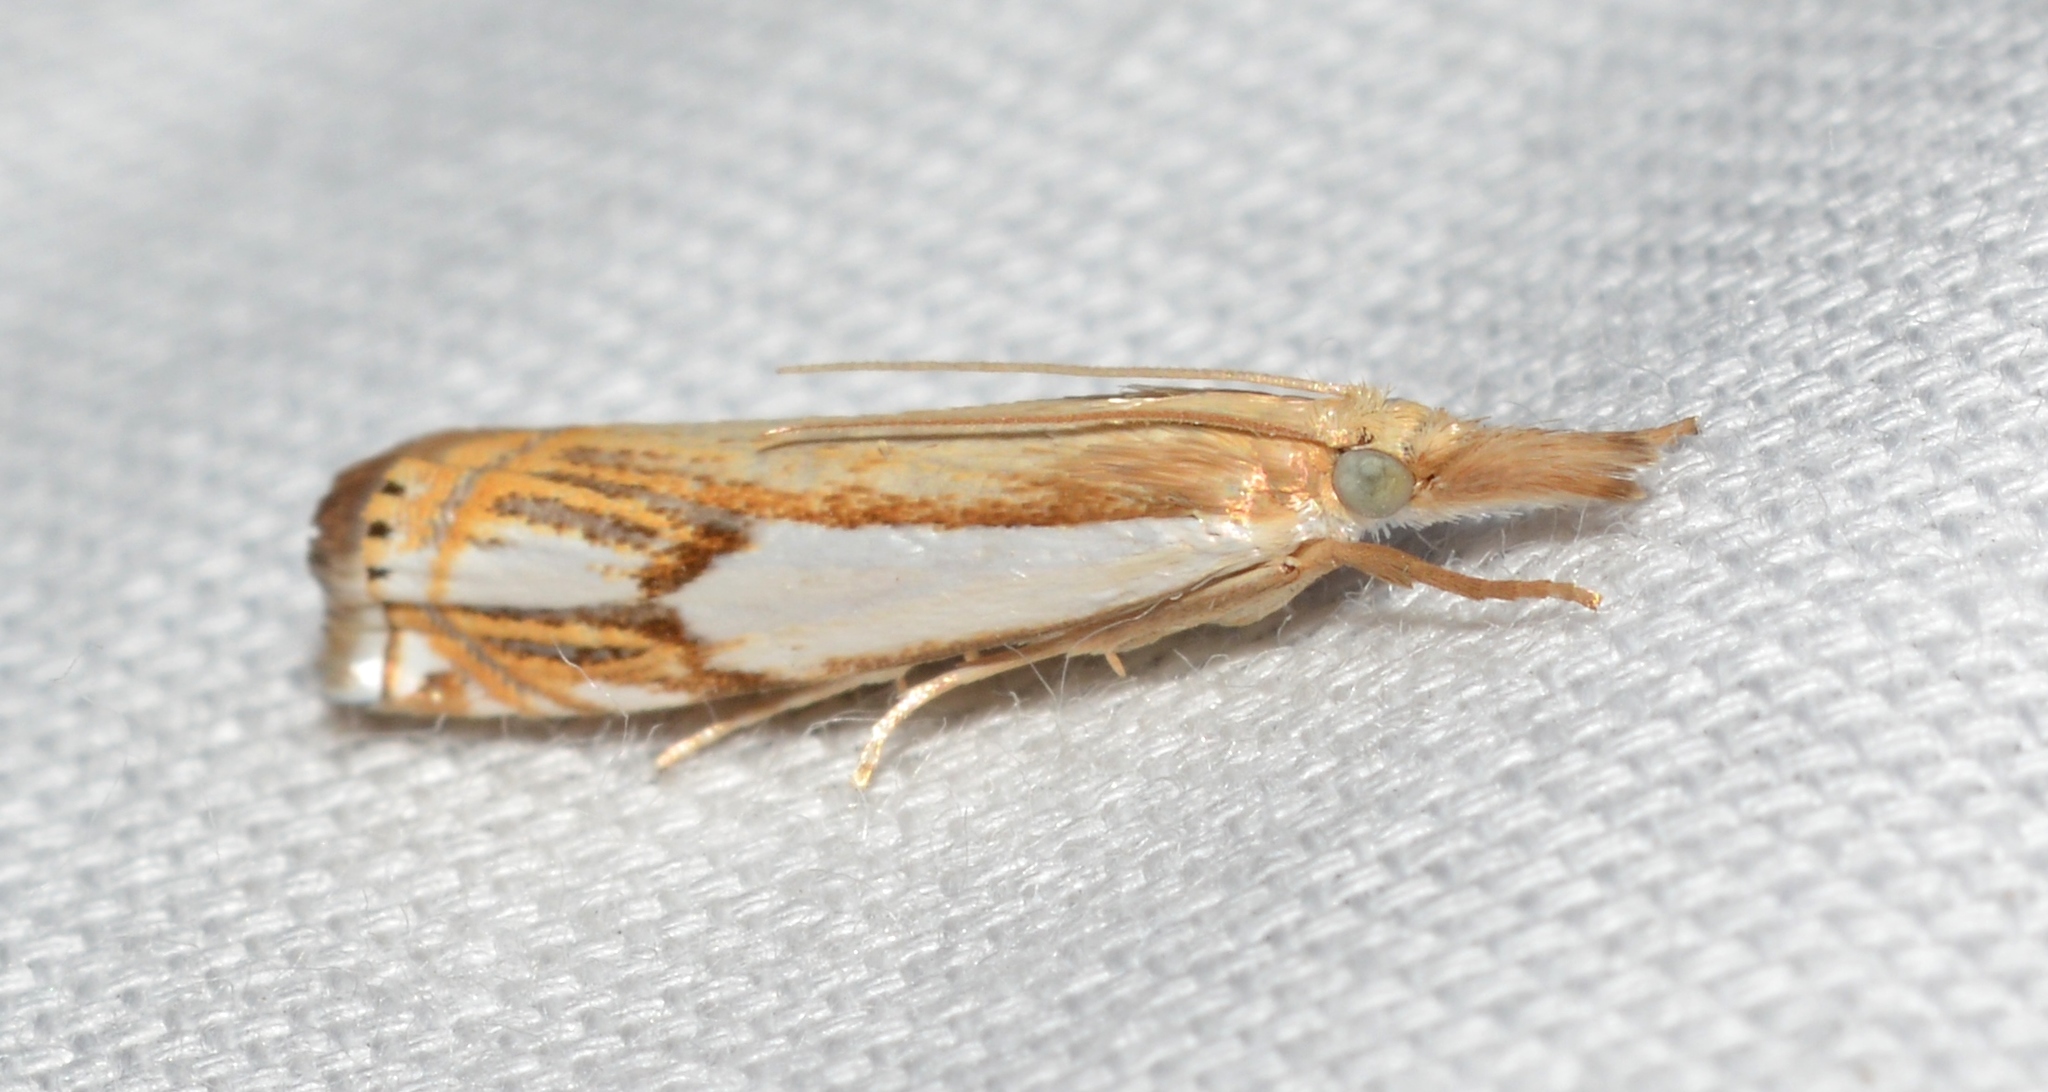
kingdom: Animalia
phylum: Arthropoda
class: Insecta
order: Lepidoptera
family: Crambidae
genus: Crambus
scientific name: Crambus agitatellus
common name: Double-banded grass-veneer
